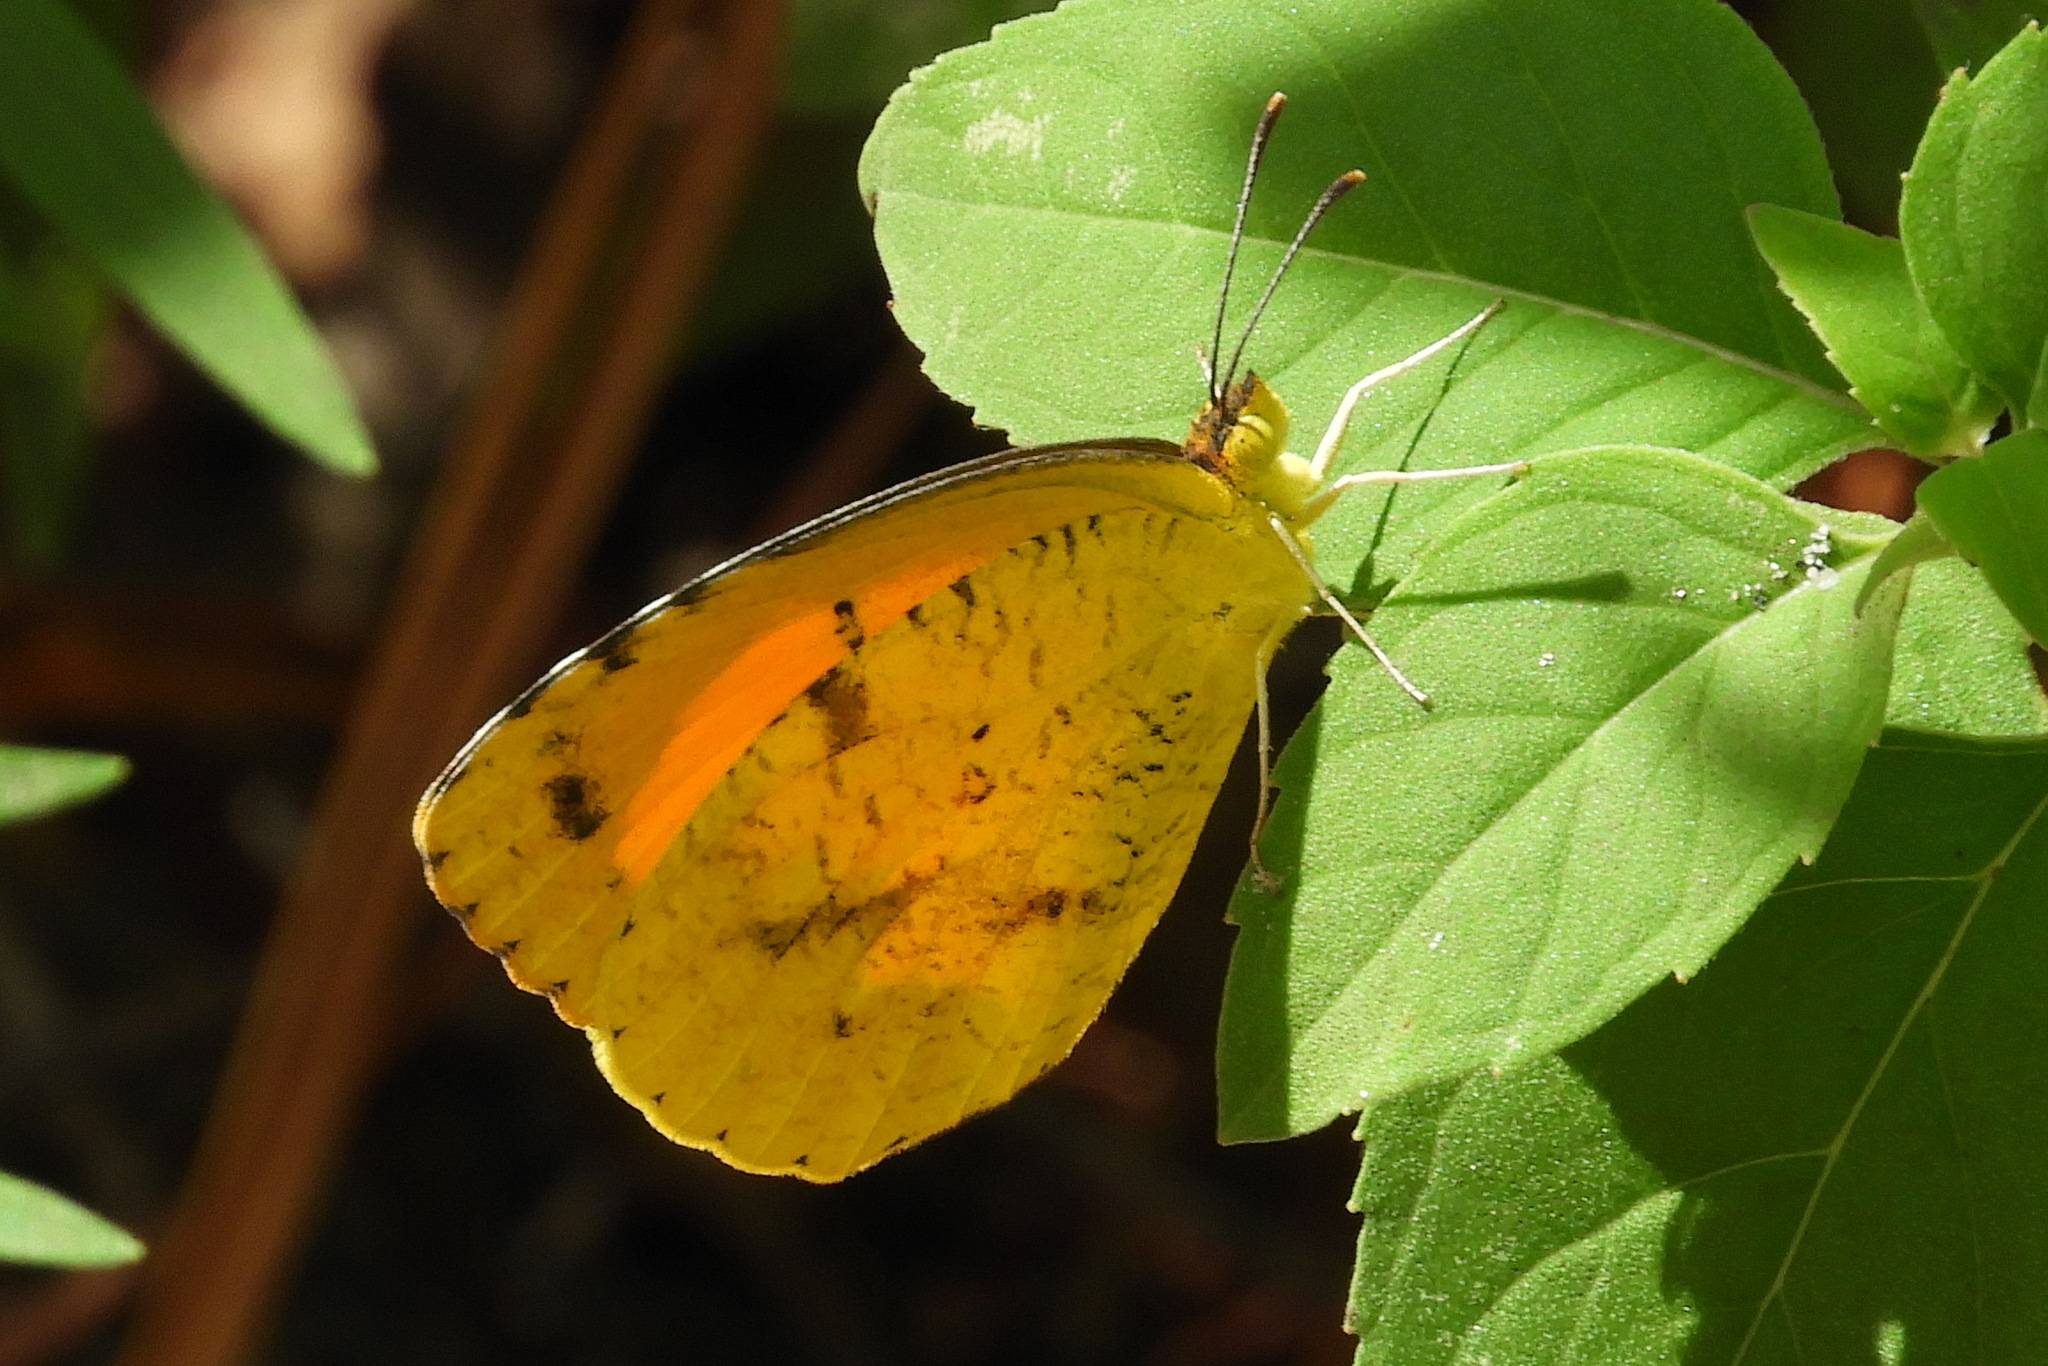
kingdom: Animalia
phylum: Arthropoda
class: Insecta
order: Lepidoptera
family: Pieridae
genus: Abaeis
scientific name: Abaeis nicippe
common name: Sleepy orange
